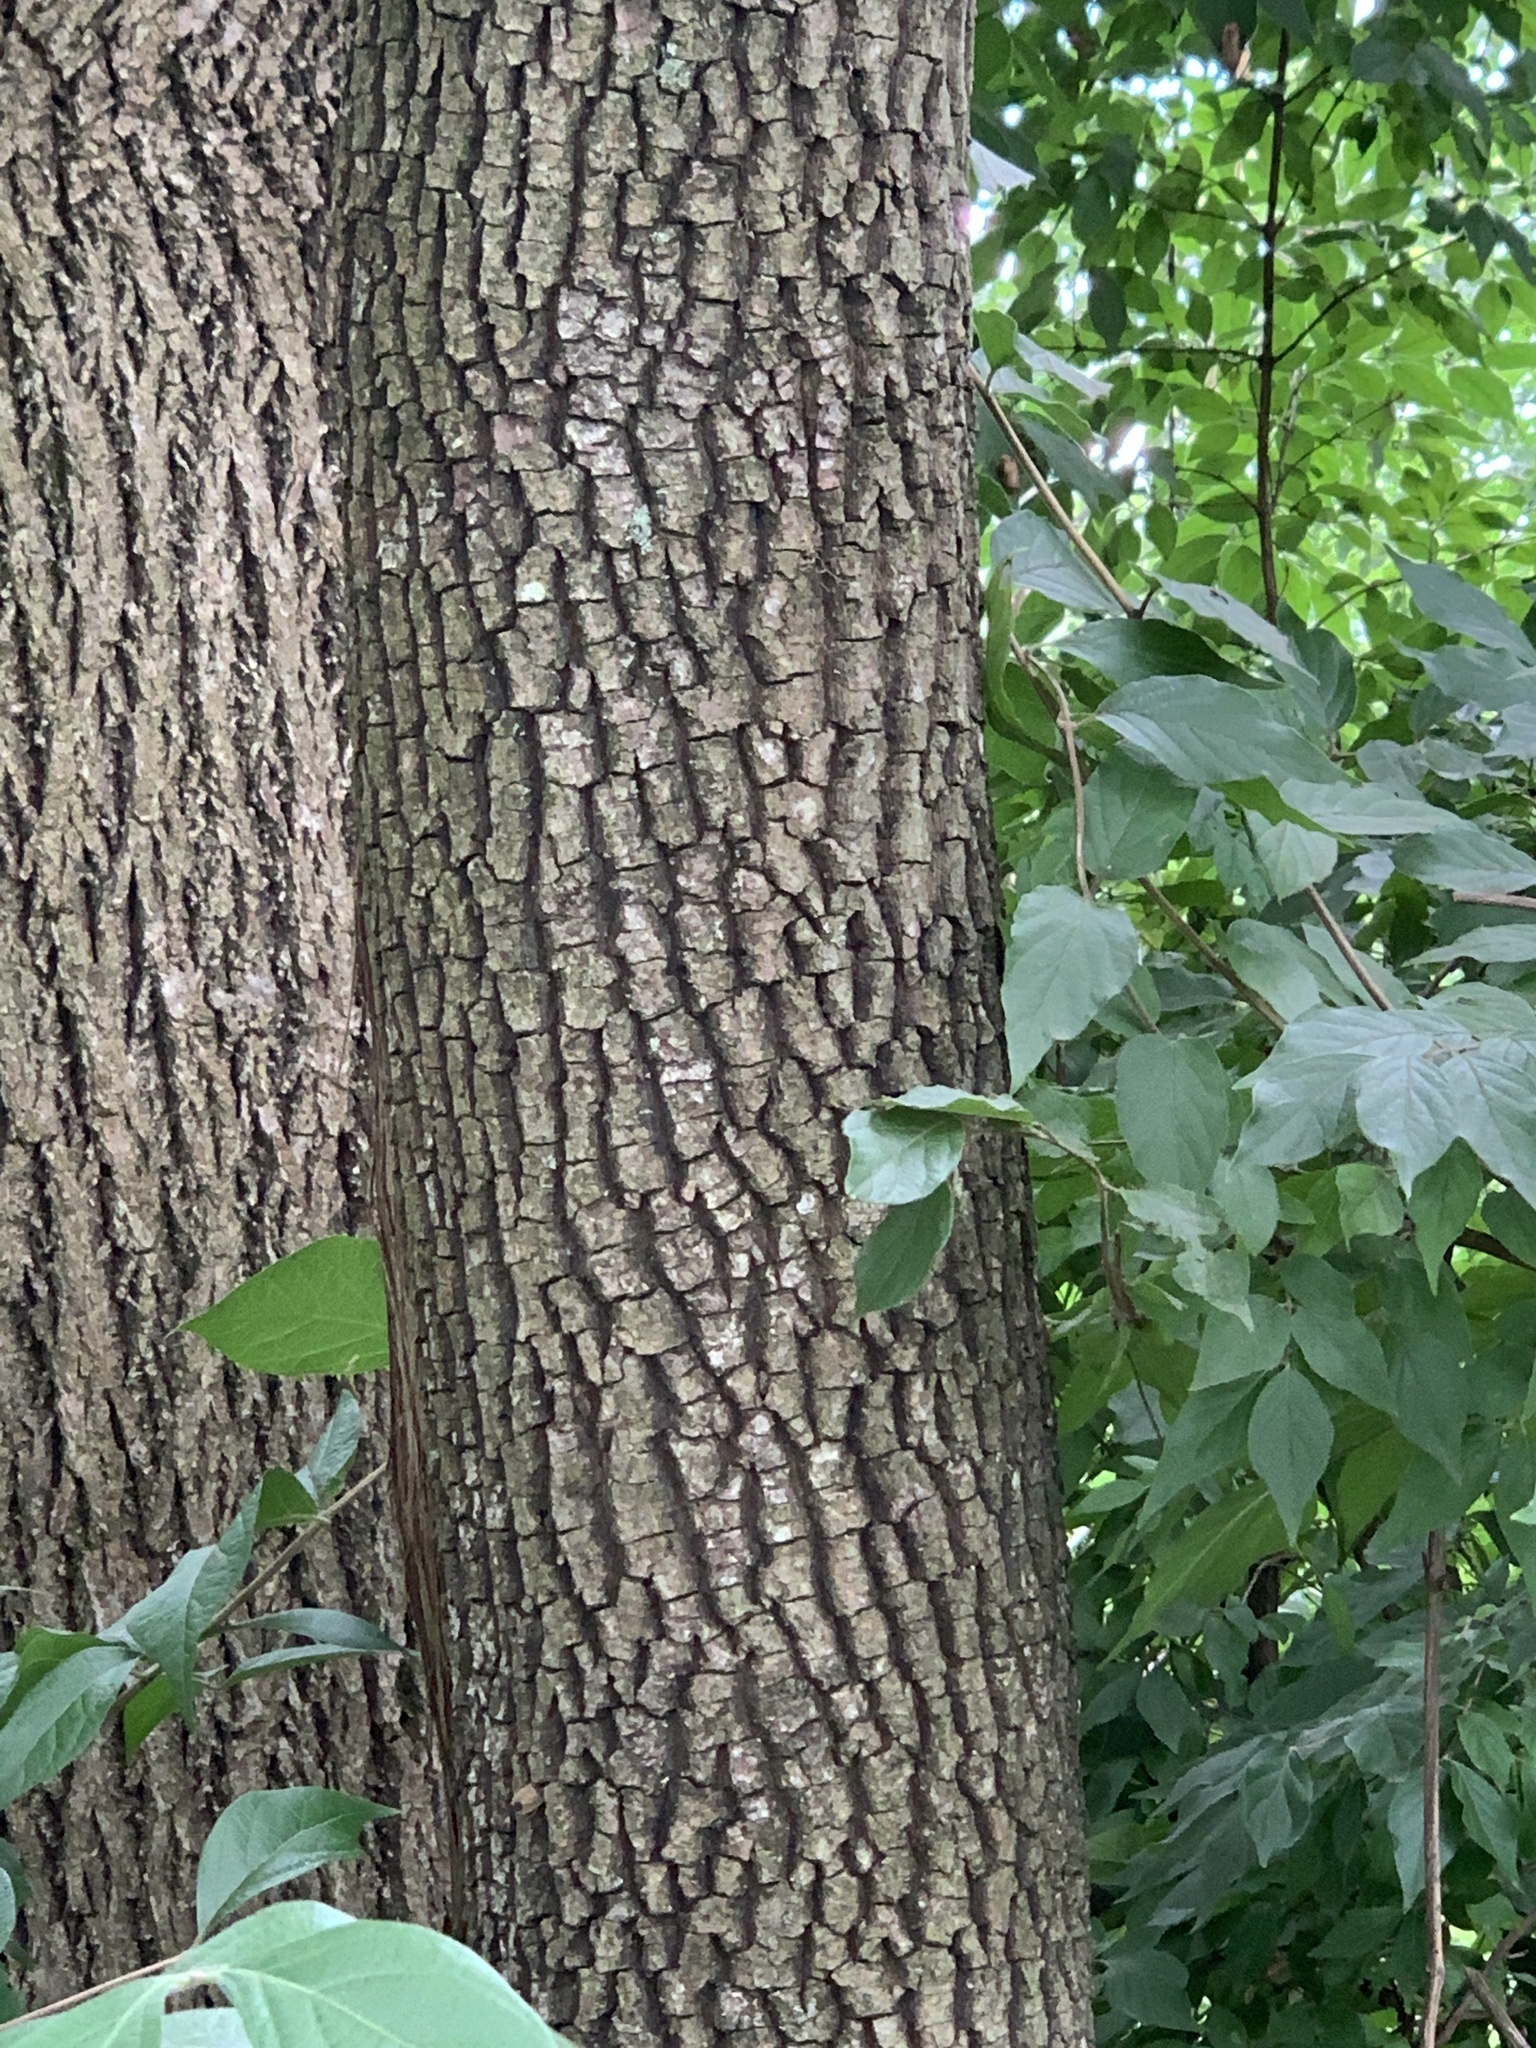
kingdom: Plantae
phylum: Tracheophyta
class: Magnoliopsida
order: Ericales
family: Ebenaceae
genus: Diospyros
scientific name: Diospyros virginiana
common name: Persimmon
